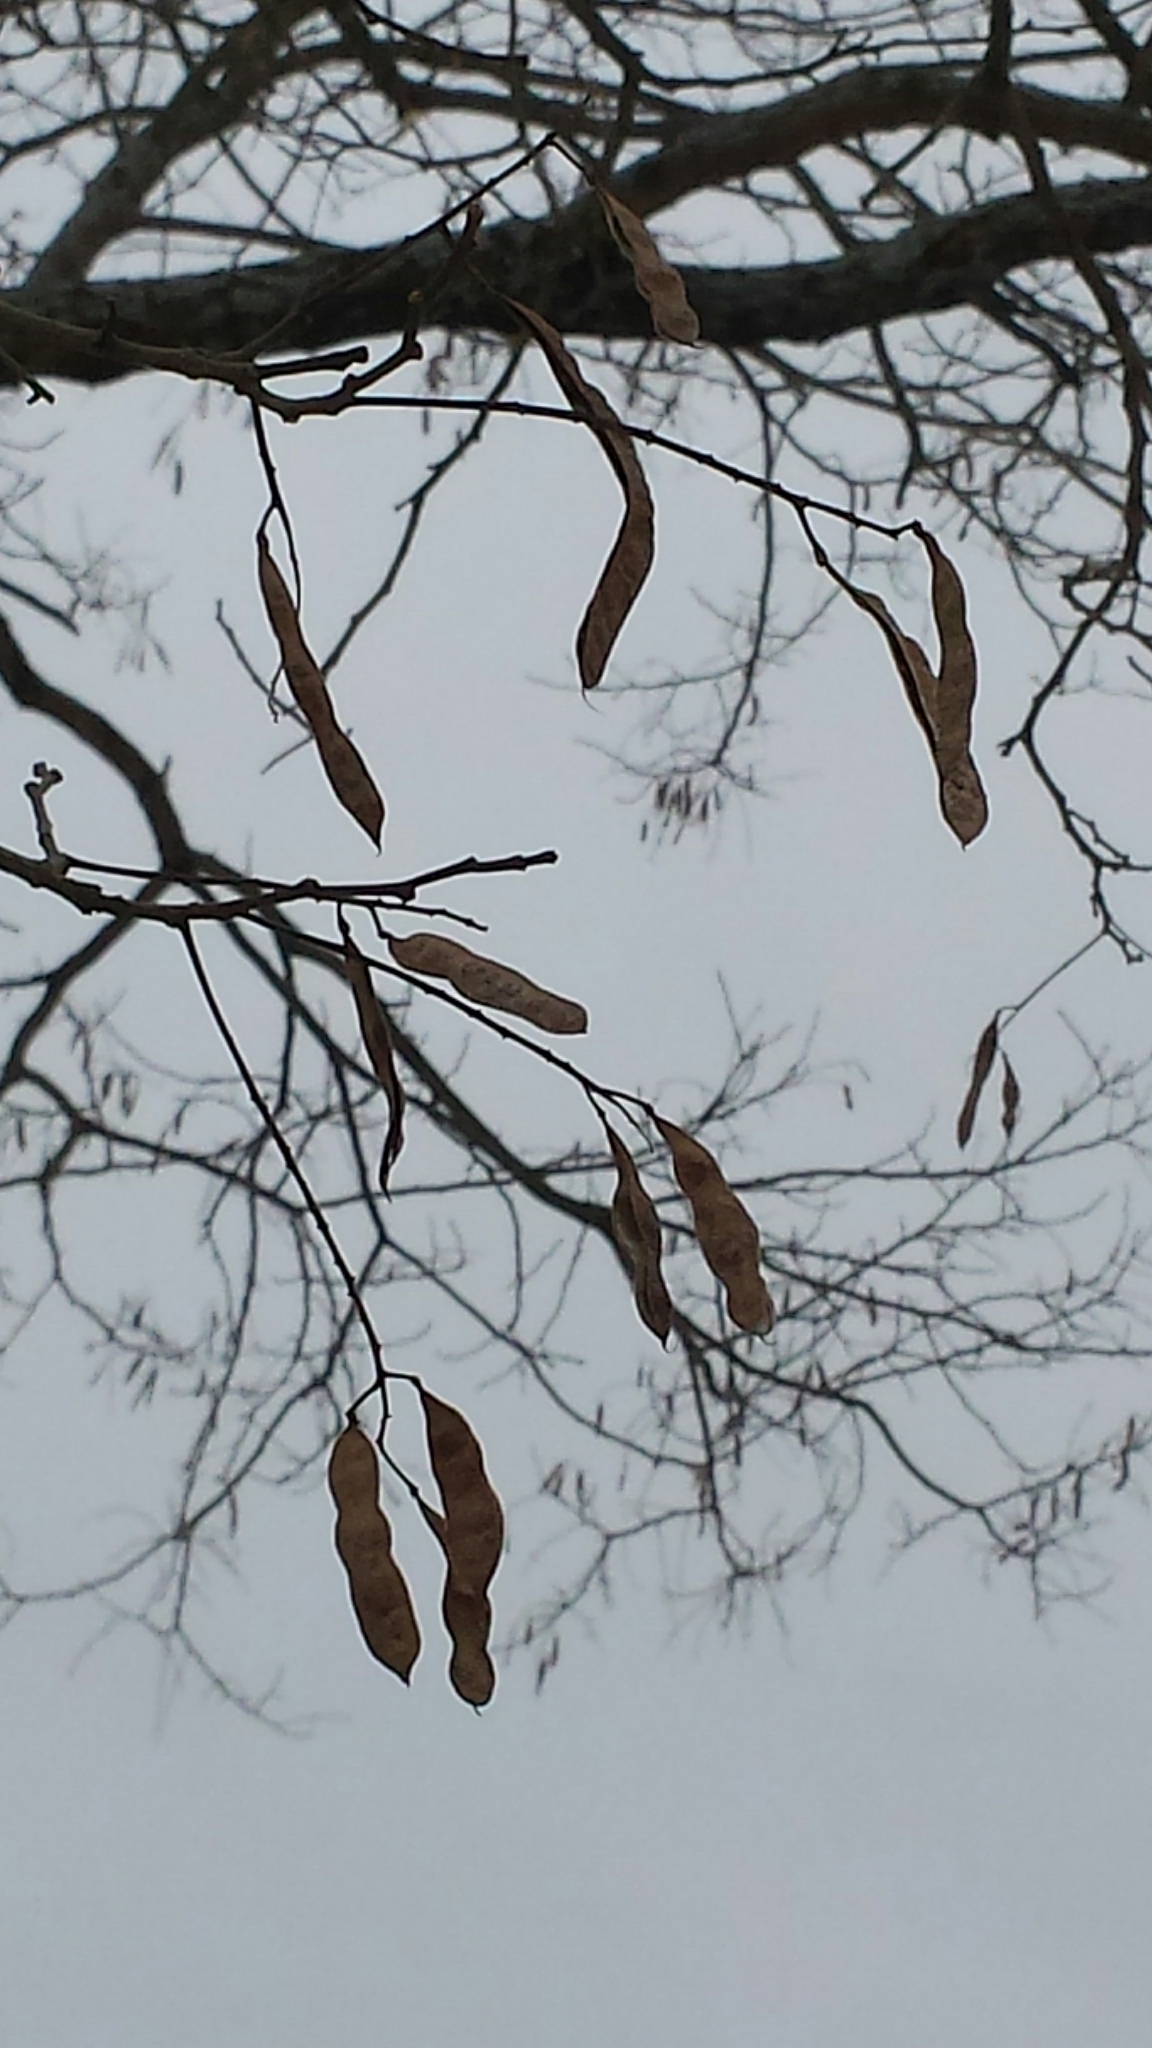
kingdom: Plantae
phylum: Tracheophyta
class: Magnoliopsida
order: Fabales
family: Fabaceae
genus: Robinia
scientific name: Robinia pseudoacacia
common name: Black locust
